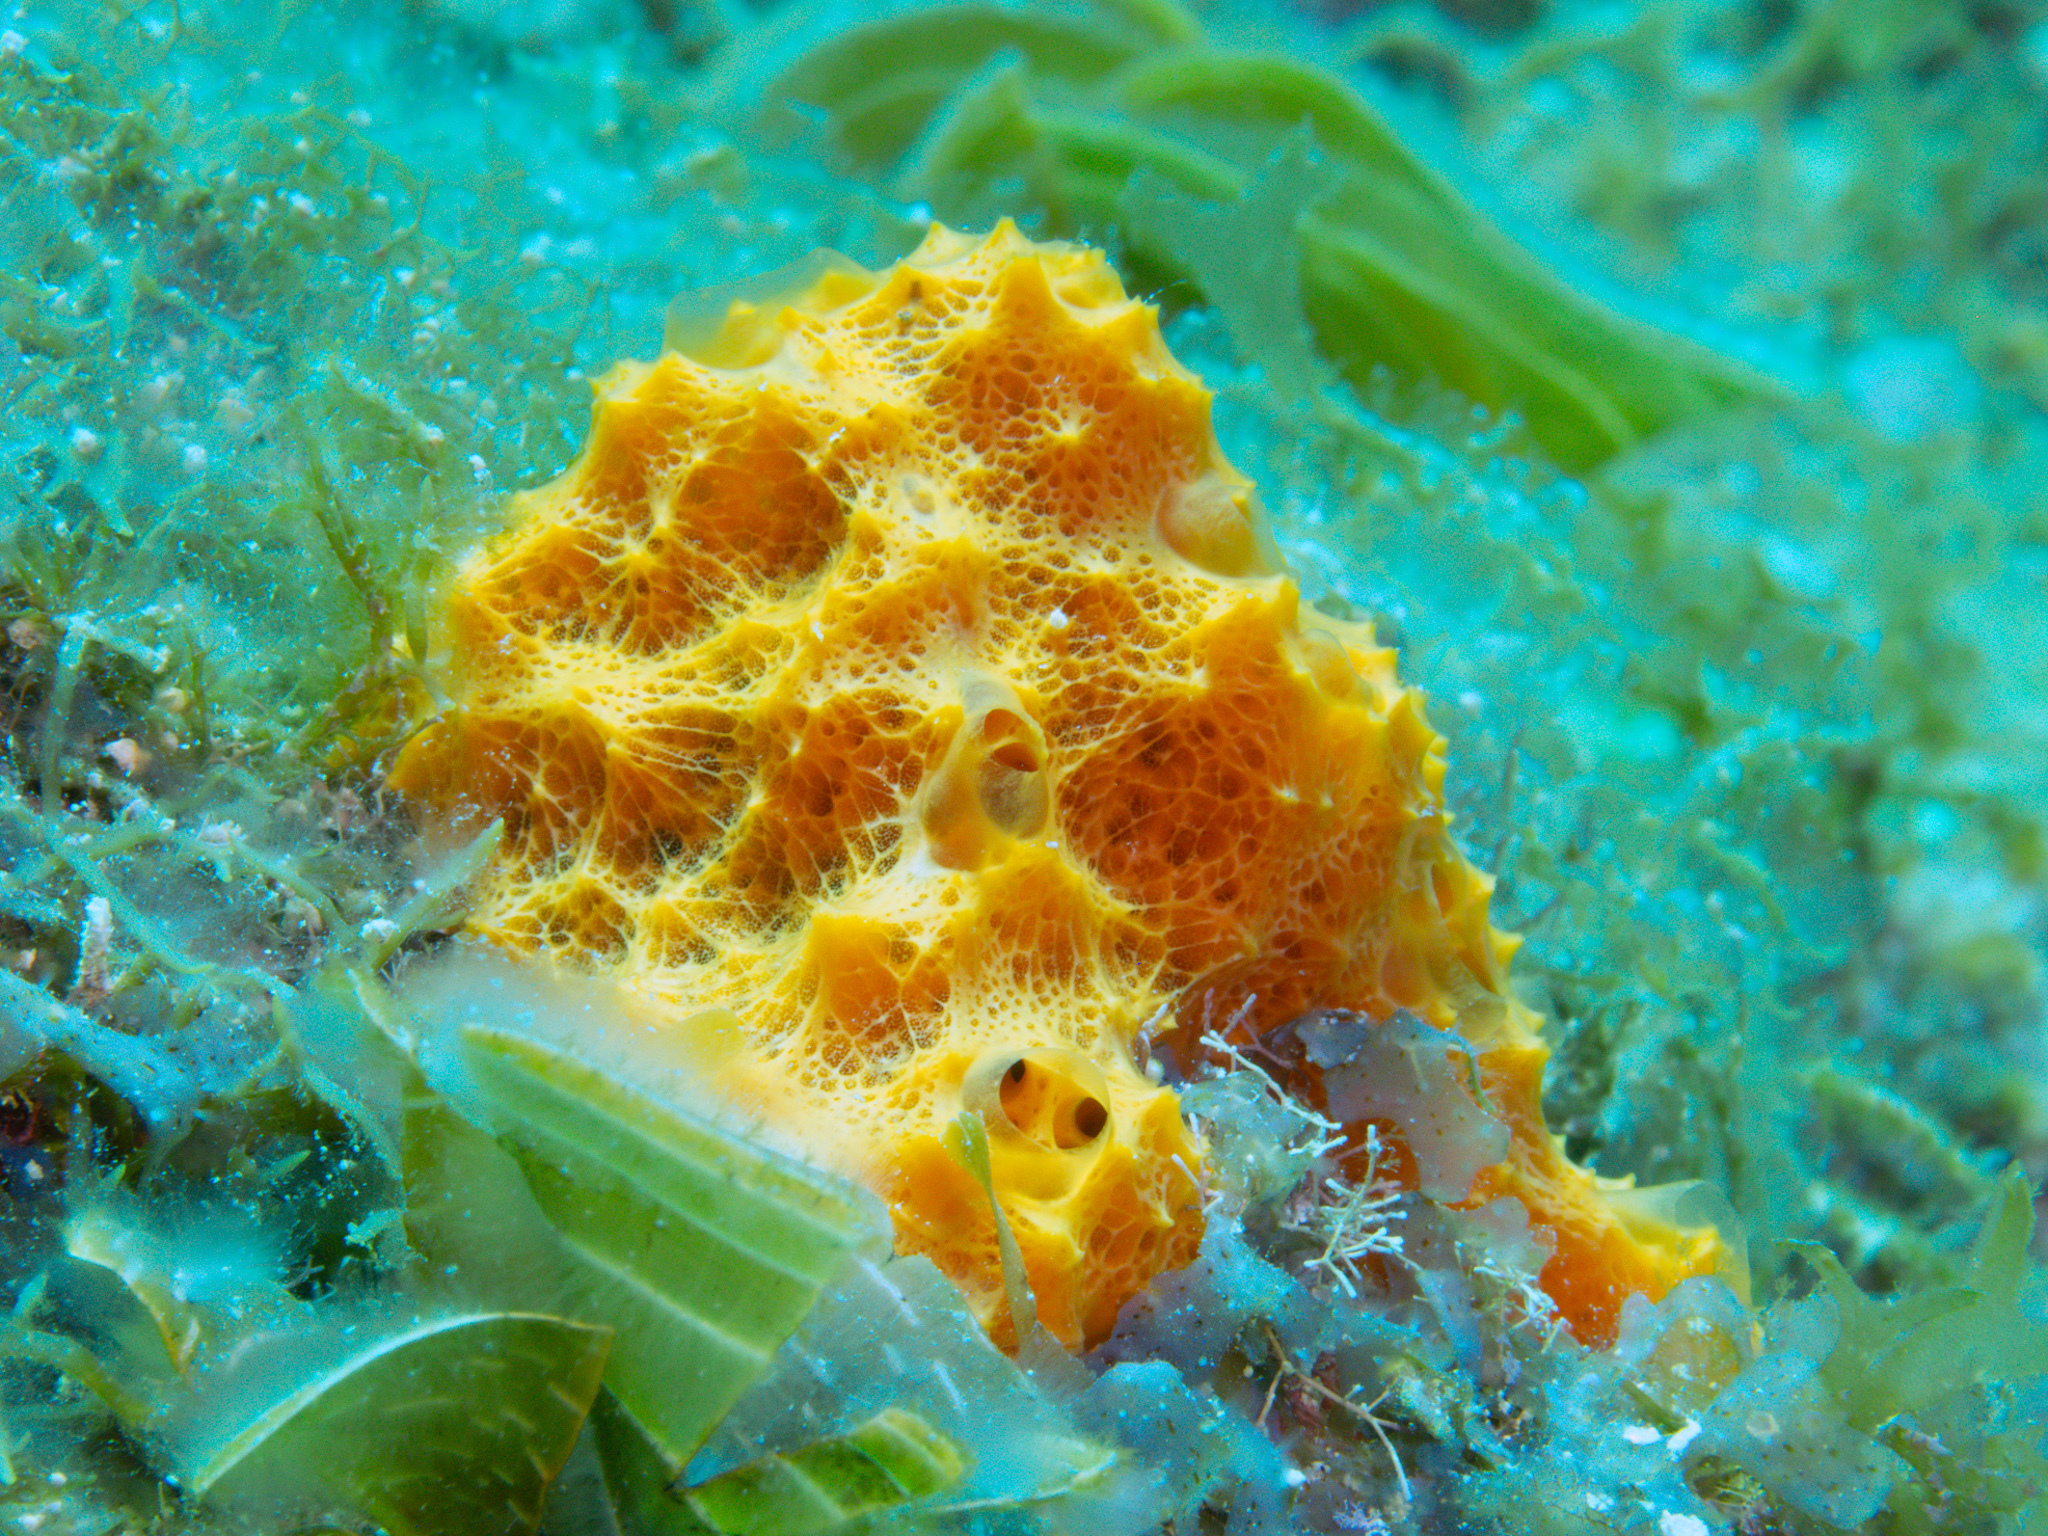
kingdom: Animalia
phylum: Porifera
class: Demospongiae
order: Scopalinida
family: Scopalinidae
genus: Scopalina
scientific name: Scopalina ruetzleri
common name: Orange lumpy encrusting sponge
